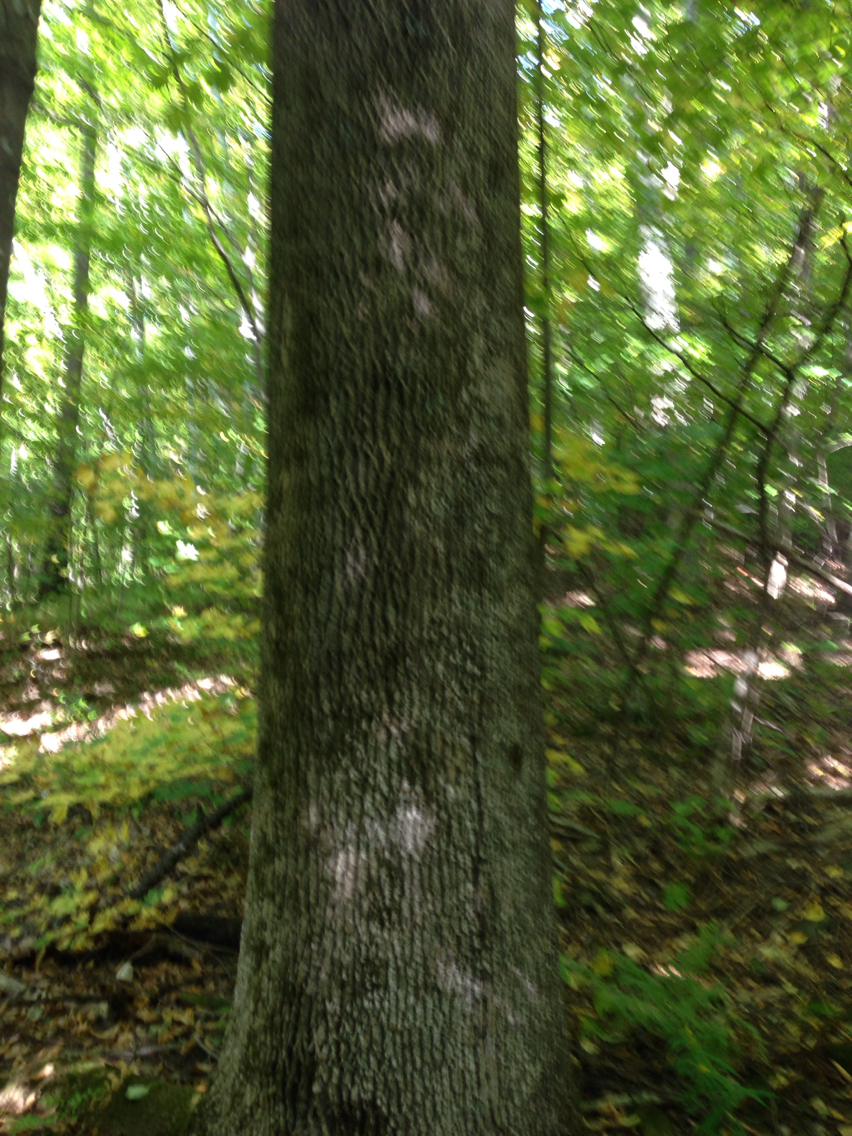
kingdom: Plantae
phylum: Tracheophyta
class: Magnoliopsida
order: Lamiales
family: Oleaceae
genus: Fraxinus
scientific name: Fraxinus americana
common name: White ash
